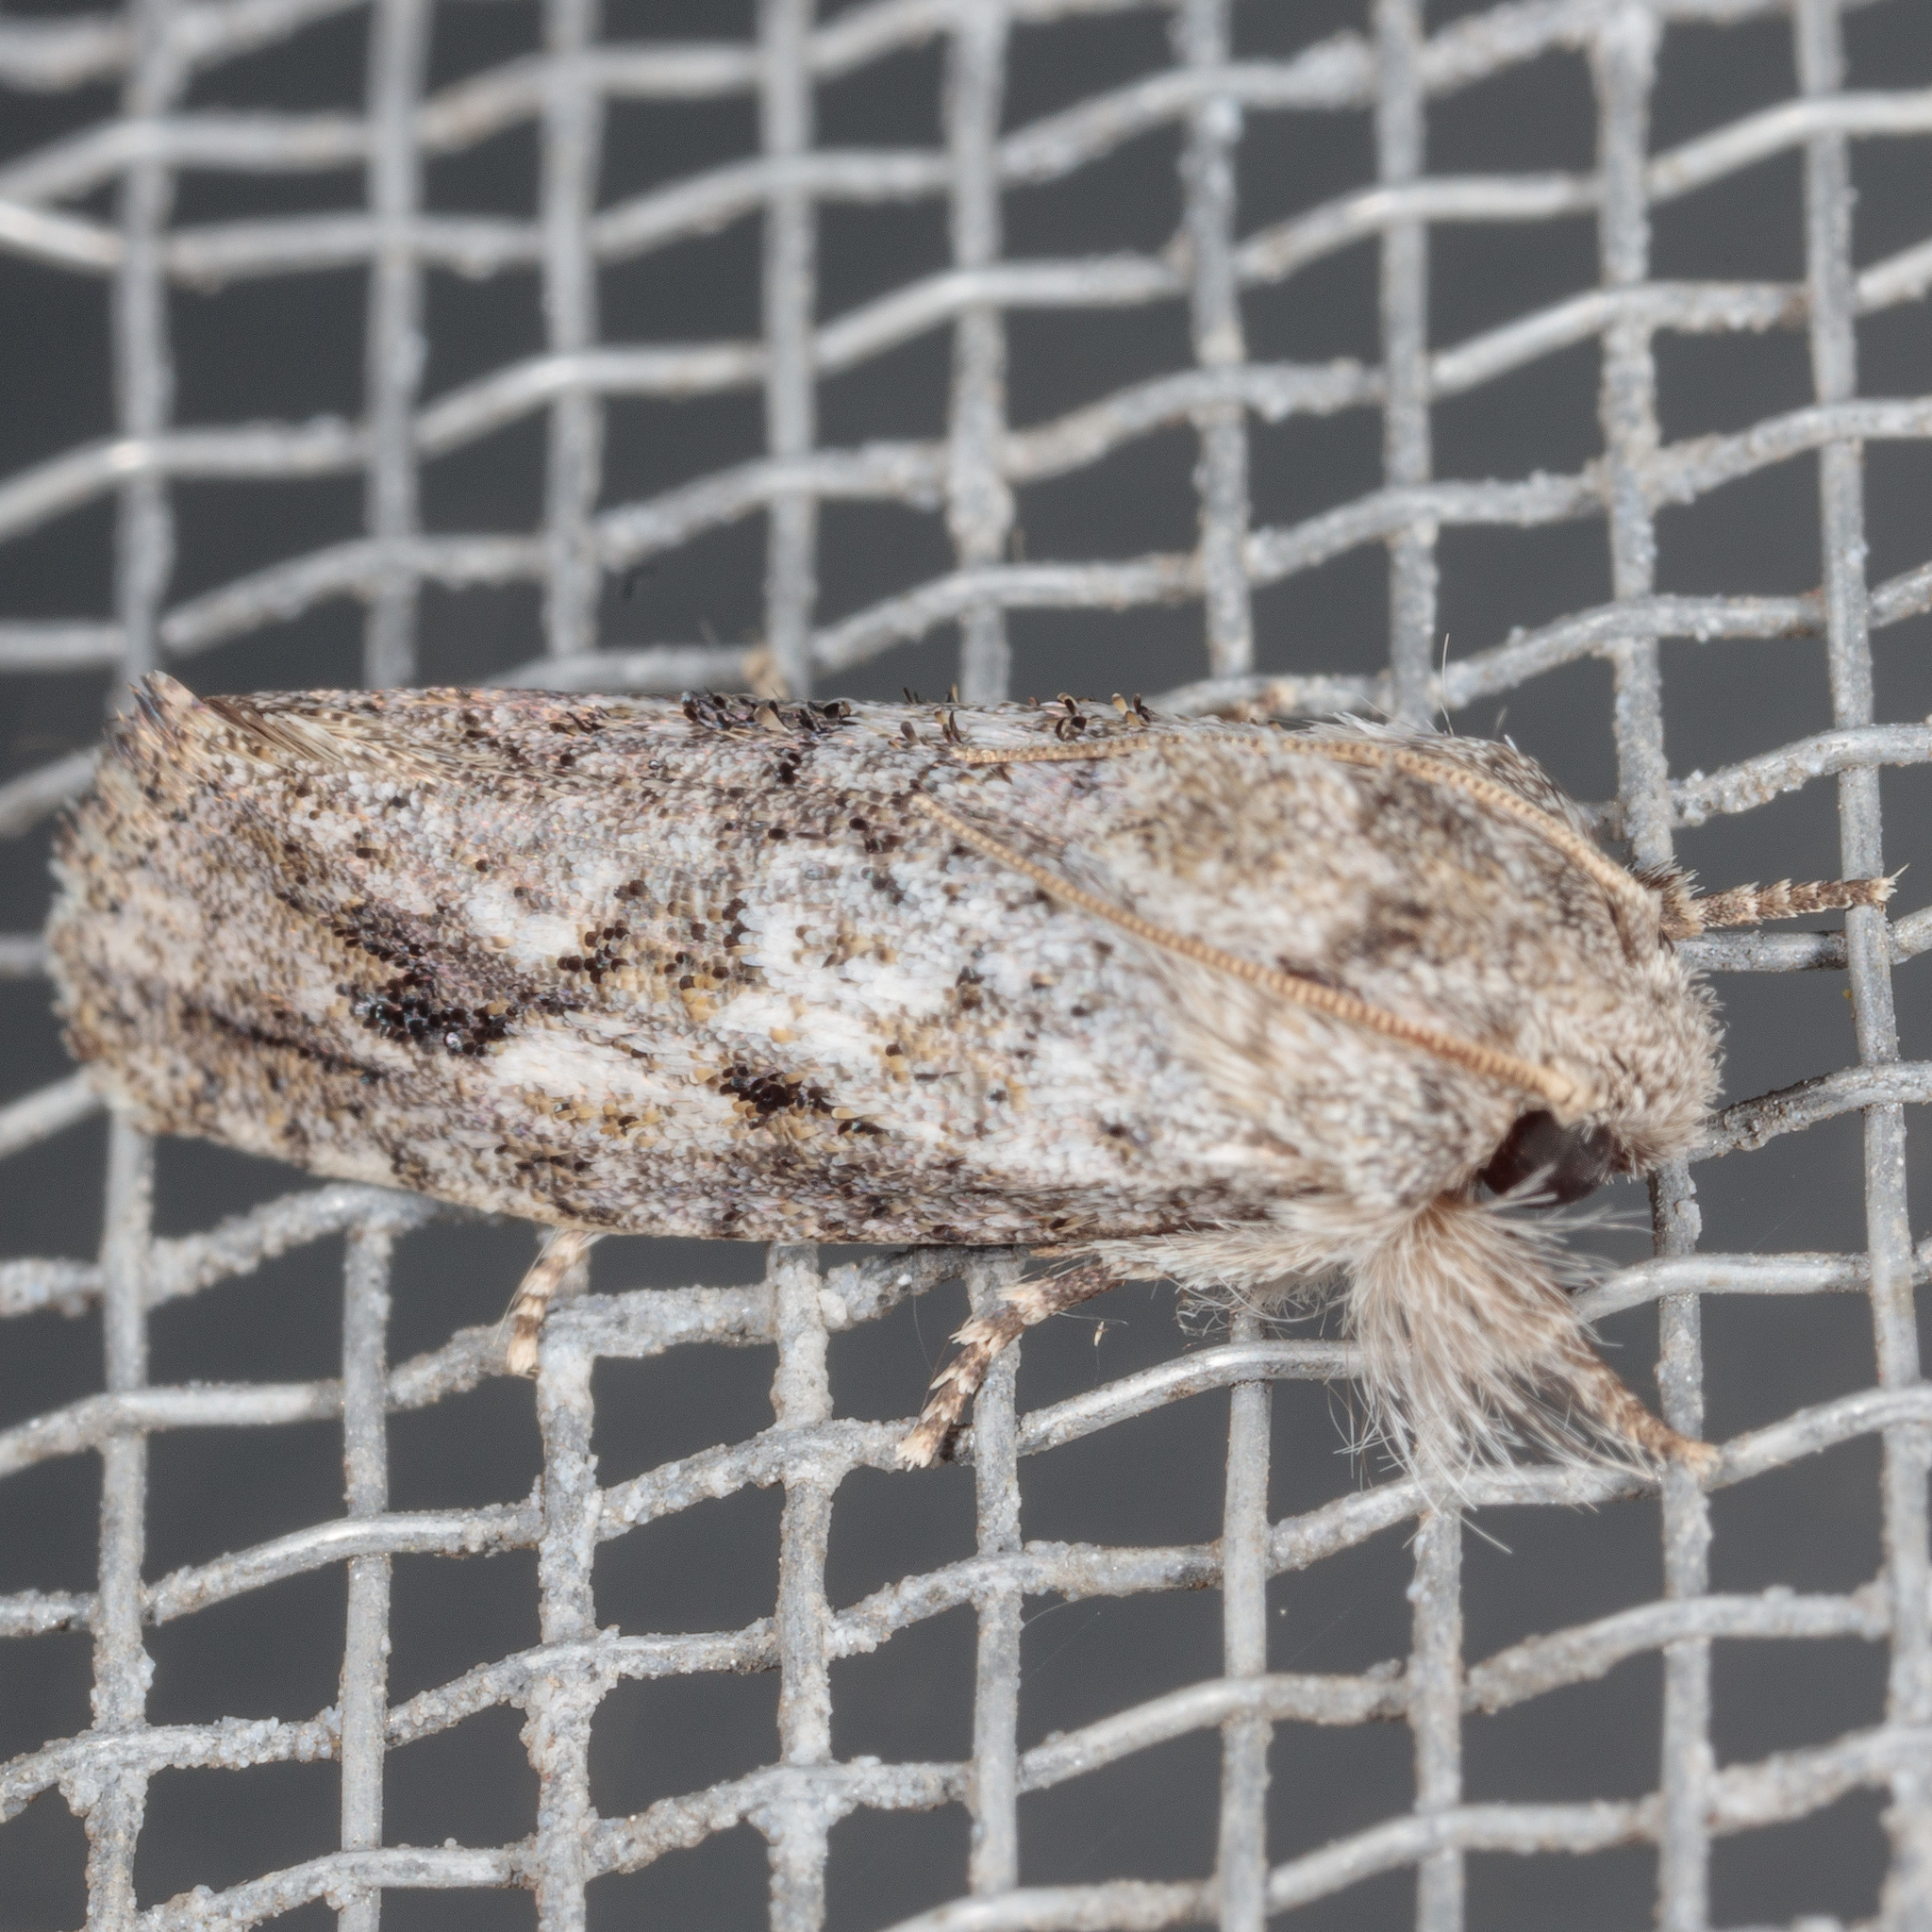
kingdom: Animalia
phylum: Arthropoda
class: Insecta
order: Lepidoptera
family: Tineidae
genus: Acrolophus
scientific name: Acrolophus griseus
